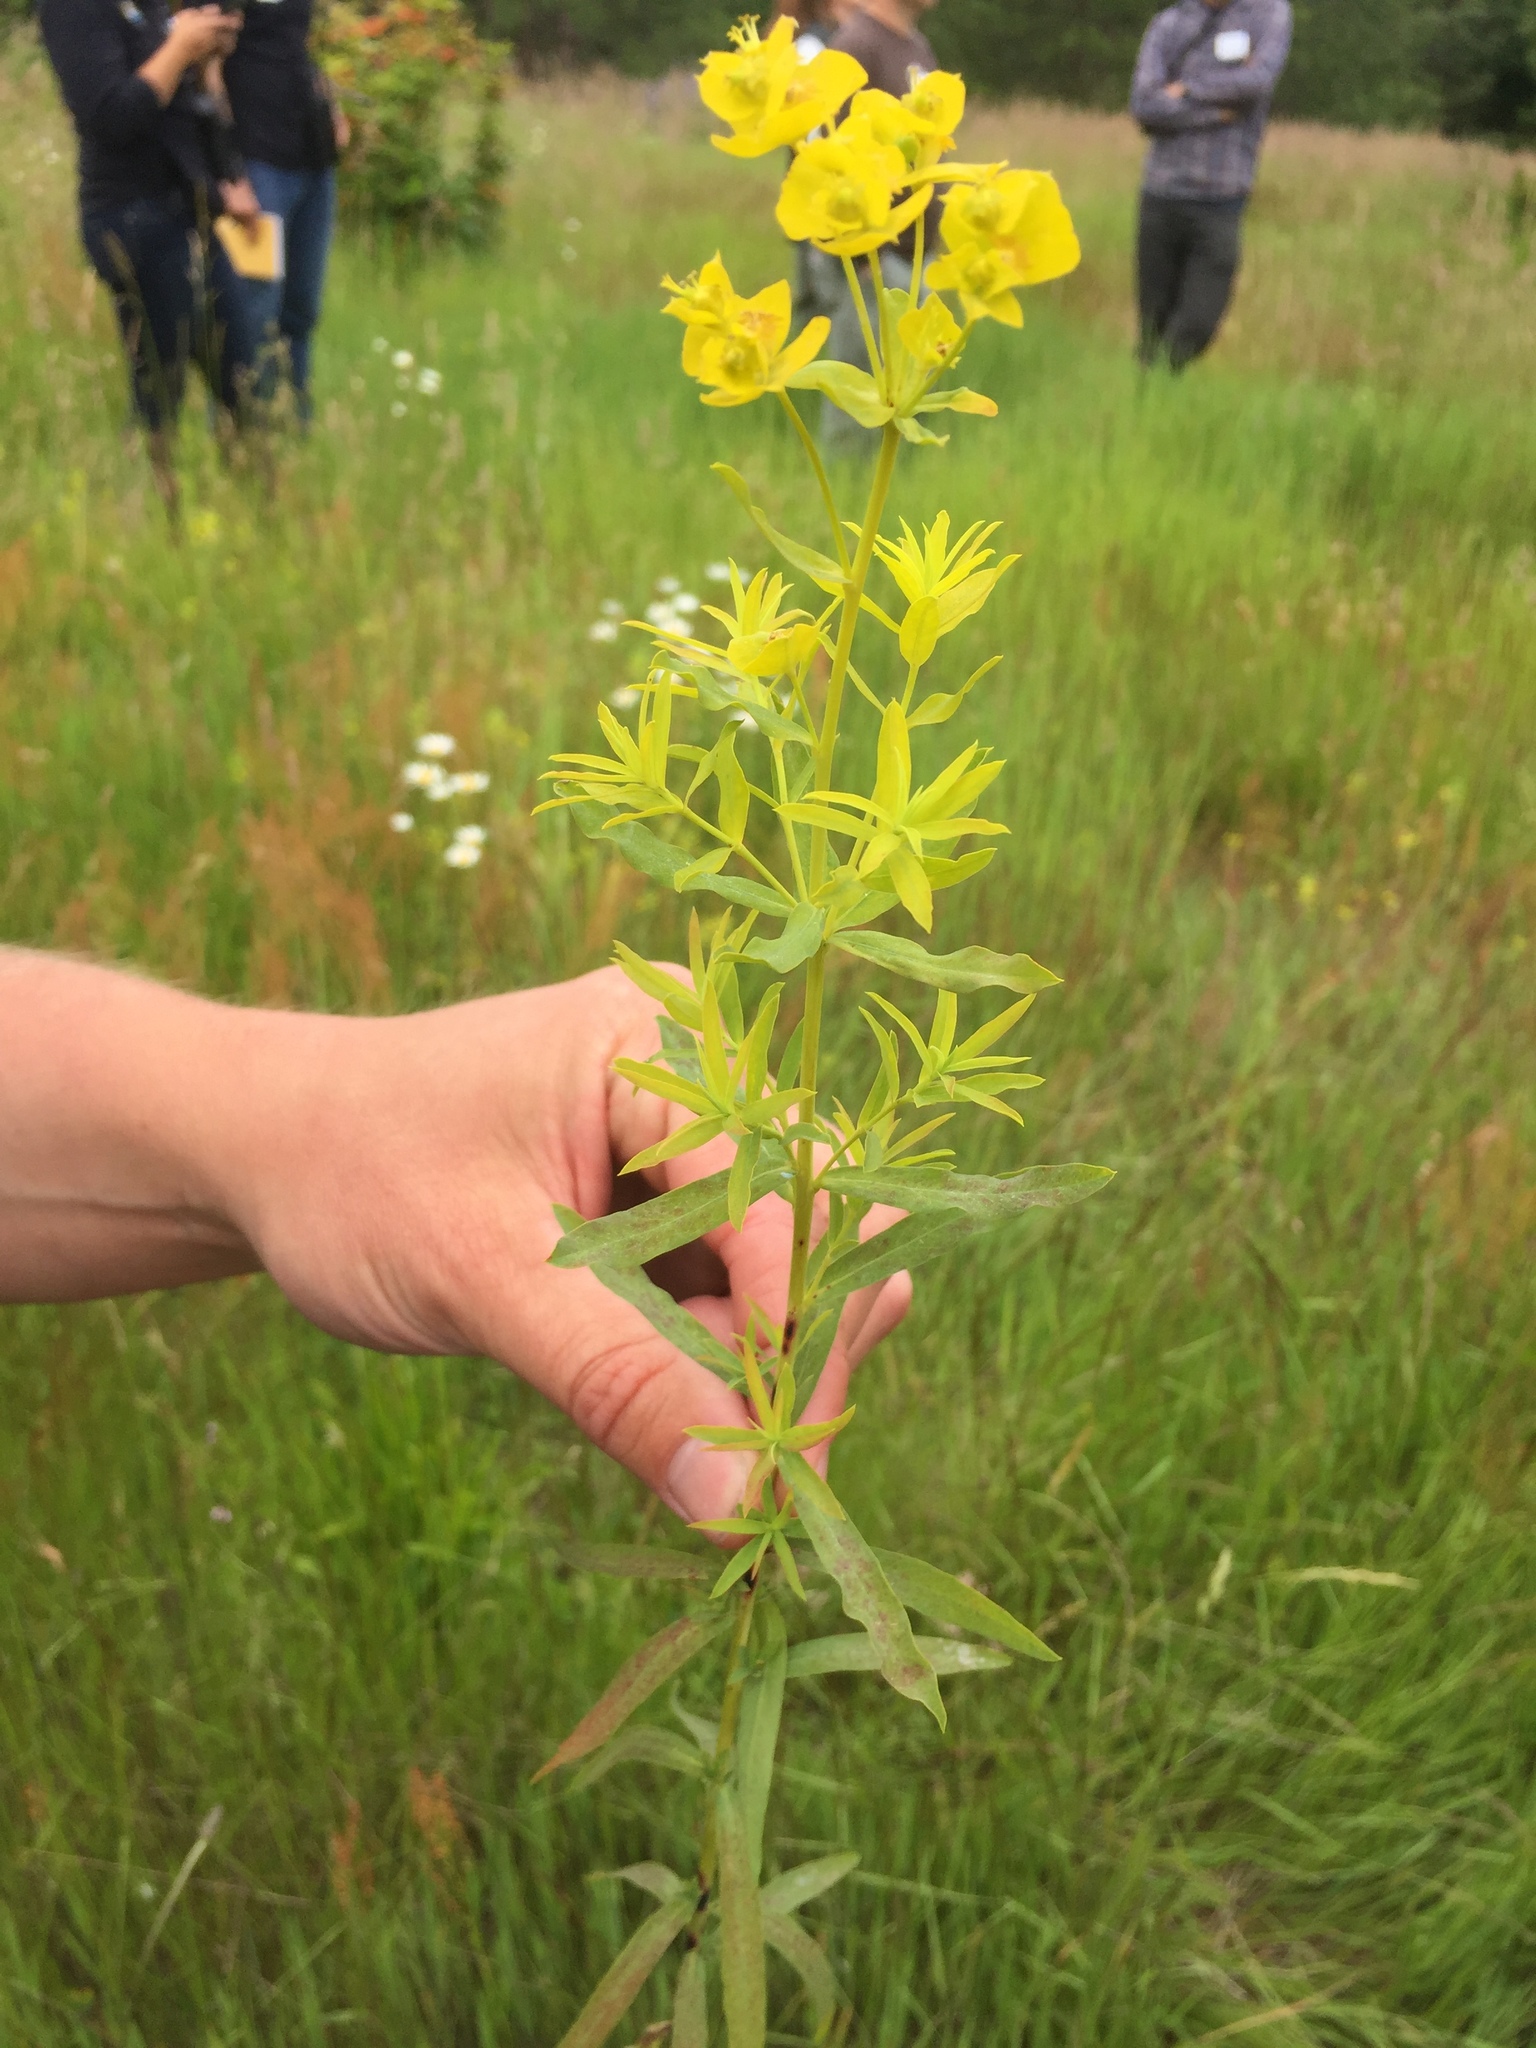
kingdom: Plantae
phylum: Tracheophyta
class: Magnoliopsida
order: Malpighiales
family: Euphorbiaceae
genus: Euphorbia
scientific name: Euphorbia virgata
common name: Leafy spurge
